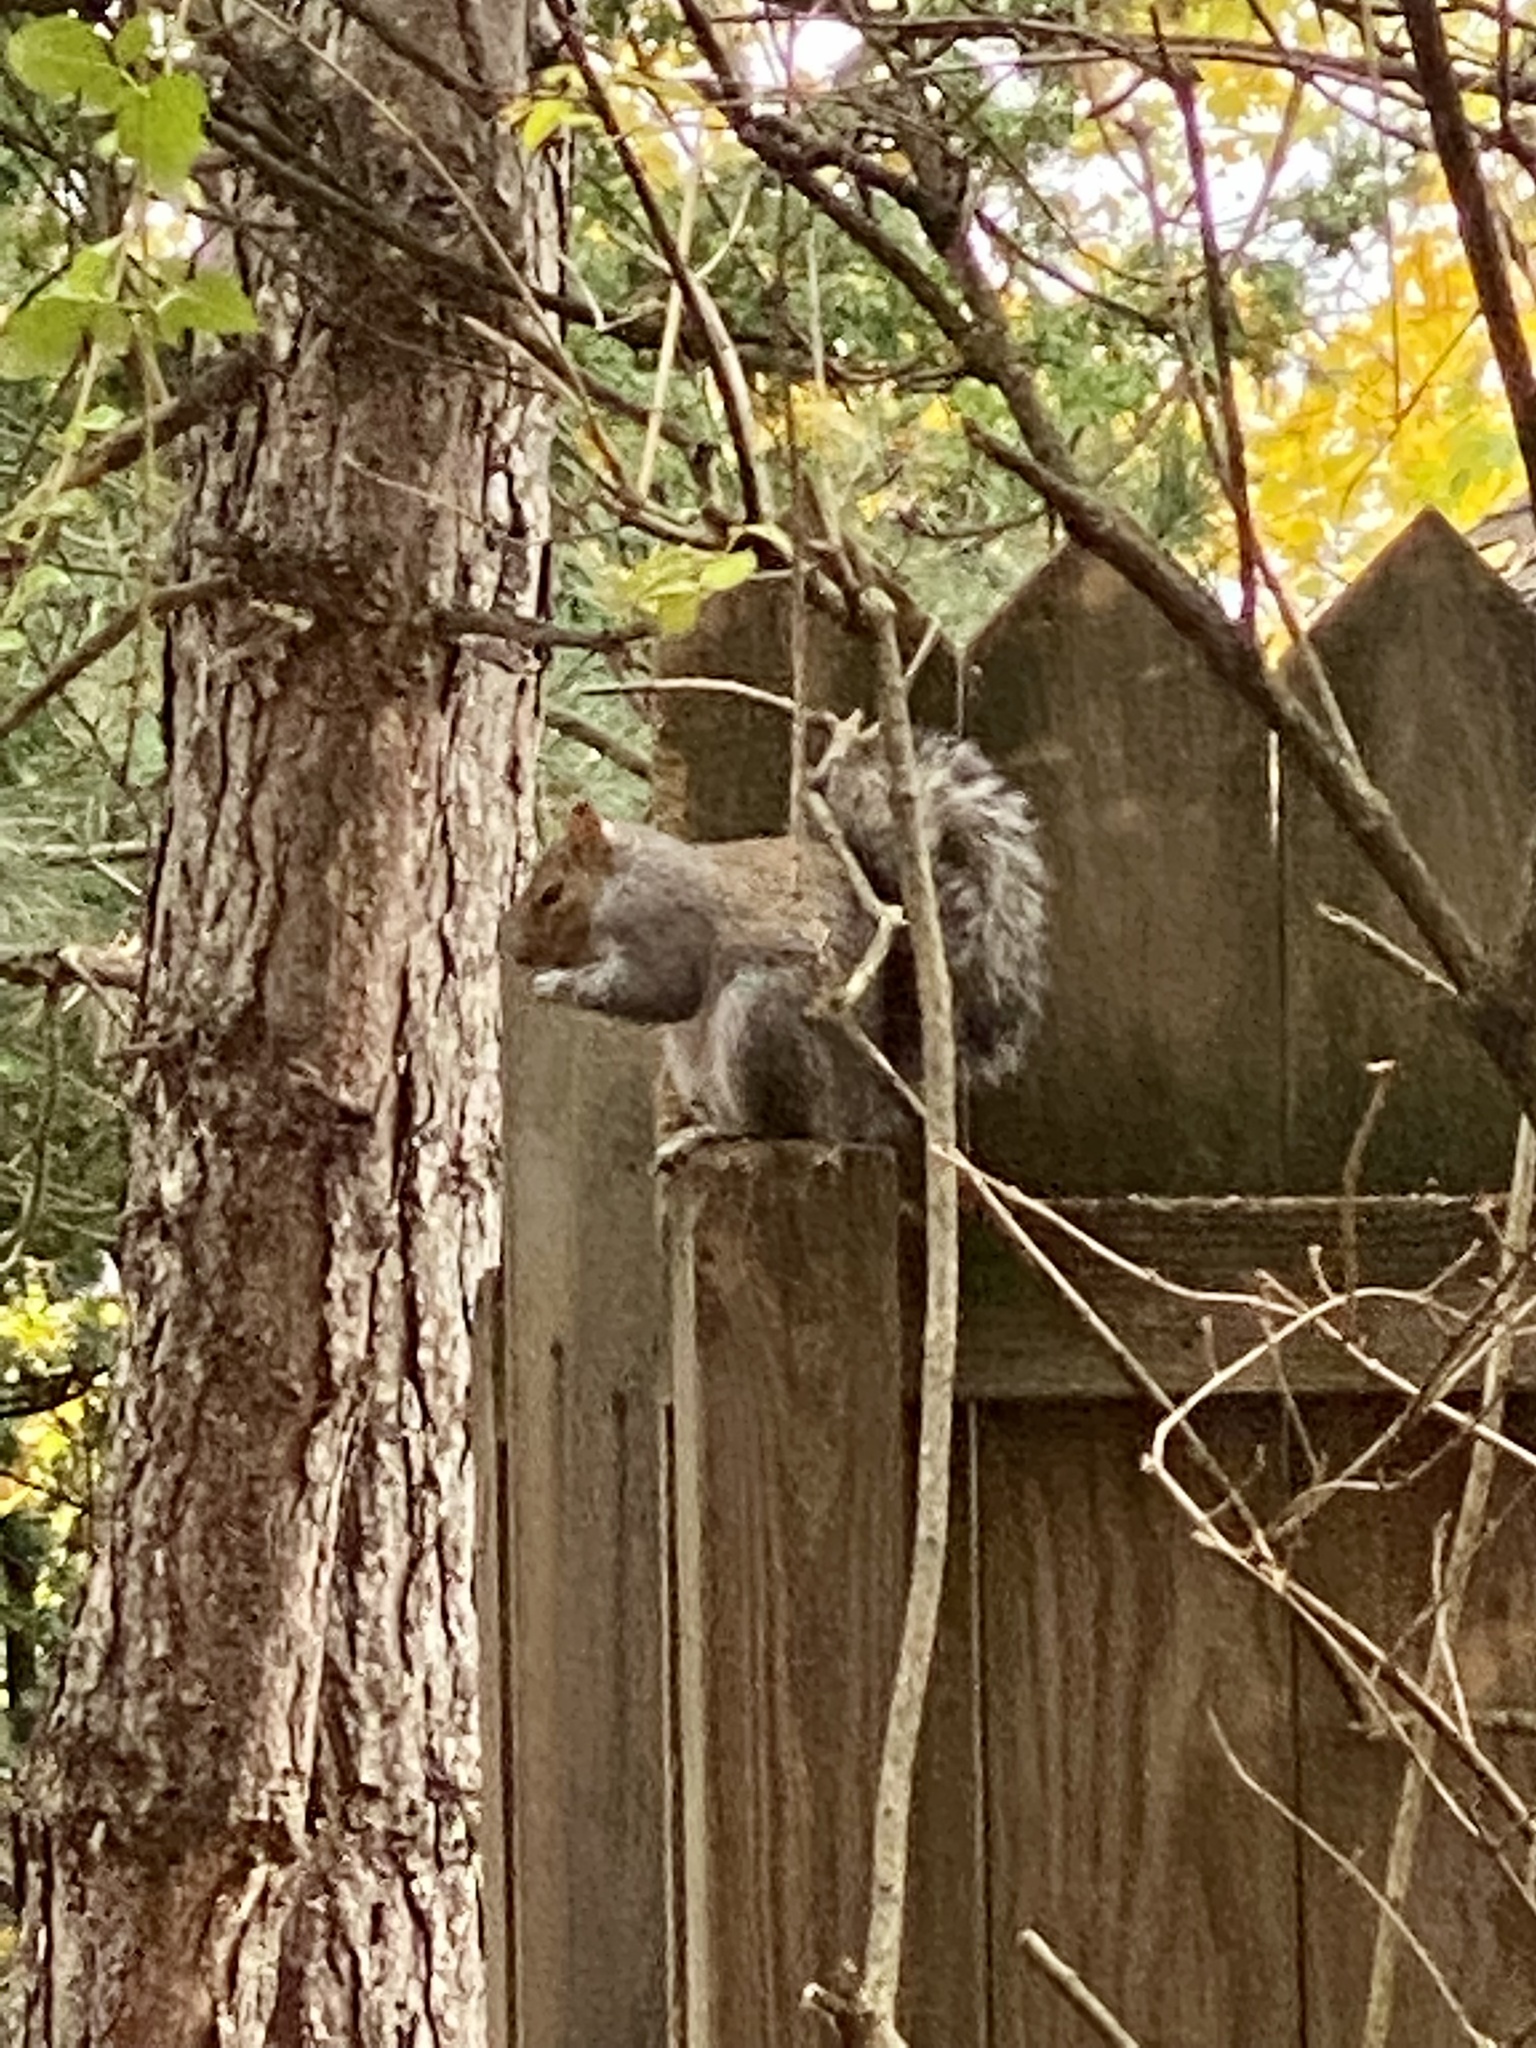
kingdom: Animalia
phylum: Chordata
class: Mammalia
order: Rodentia
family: Sciuridae
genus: Sciurus
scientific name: Sciurus carolinensis
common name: Eastern gray squirrel
